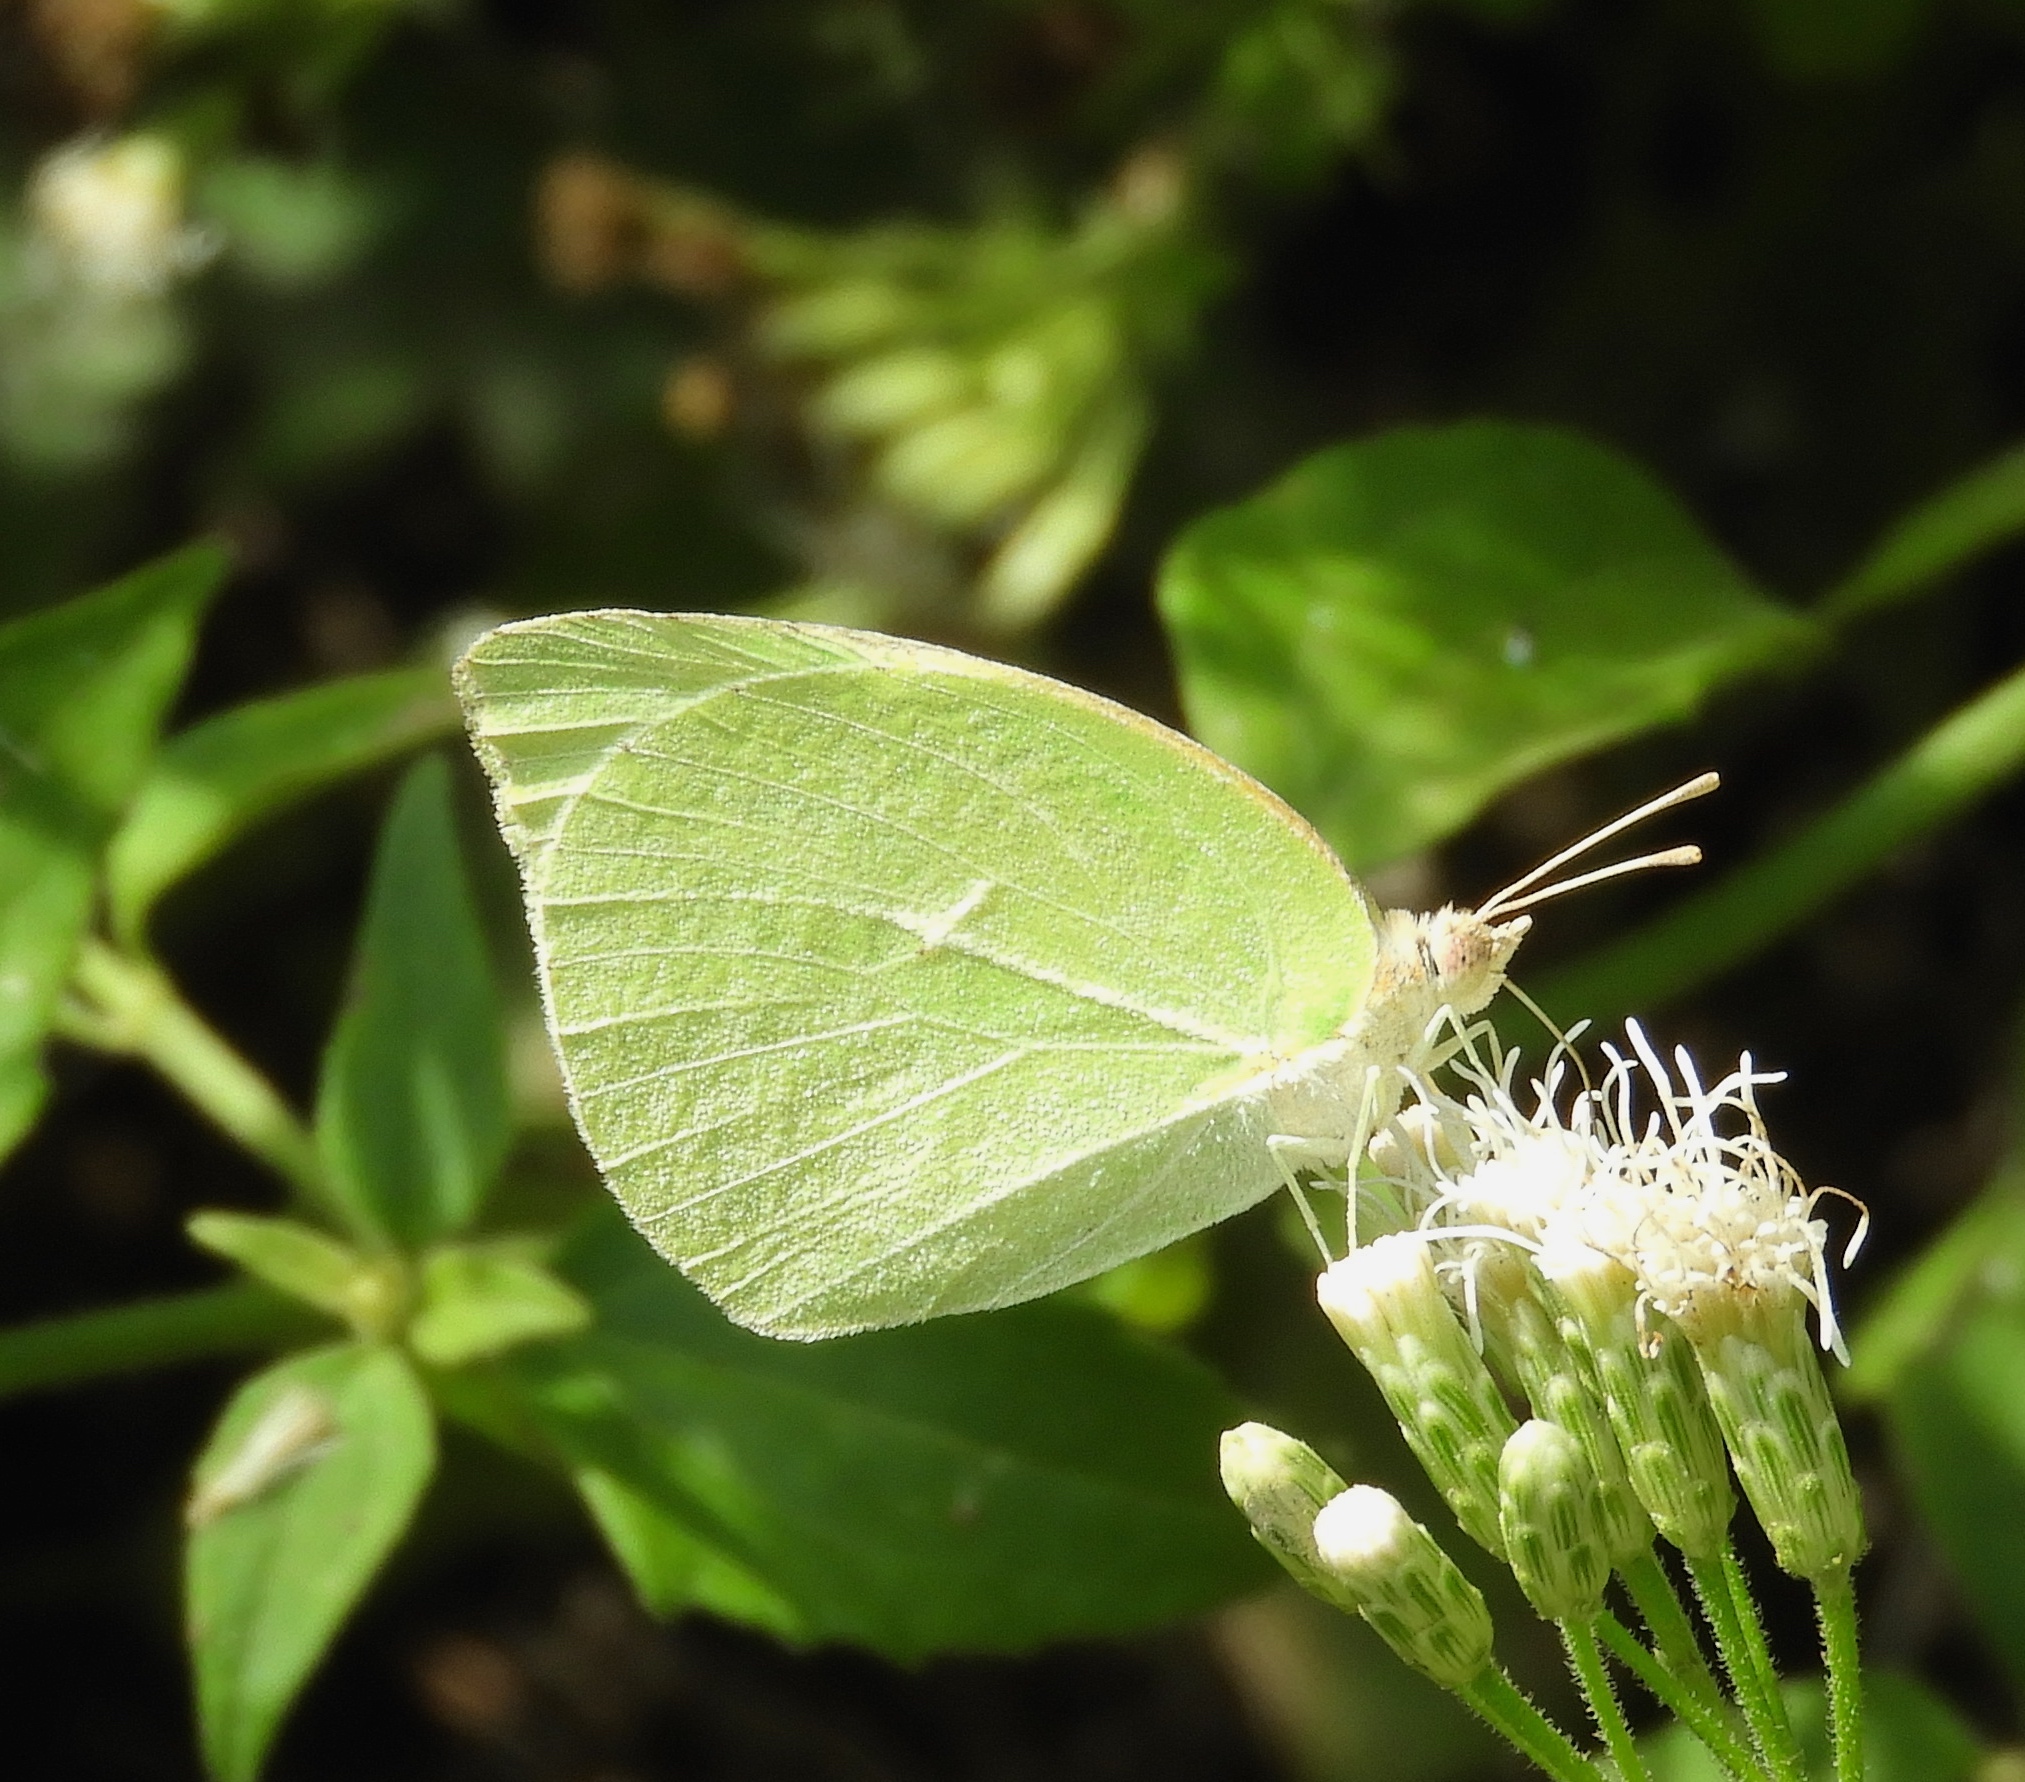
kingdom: Animalia
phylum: Arthropoda
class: Insecta
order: Lepidoptera
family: Pieridae
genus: Kricogonia
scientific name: Kricogonia lyside
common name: Guayacan sulphur,
